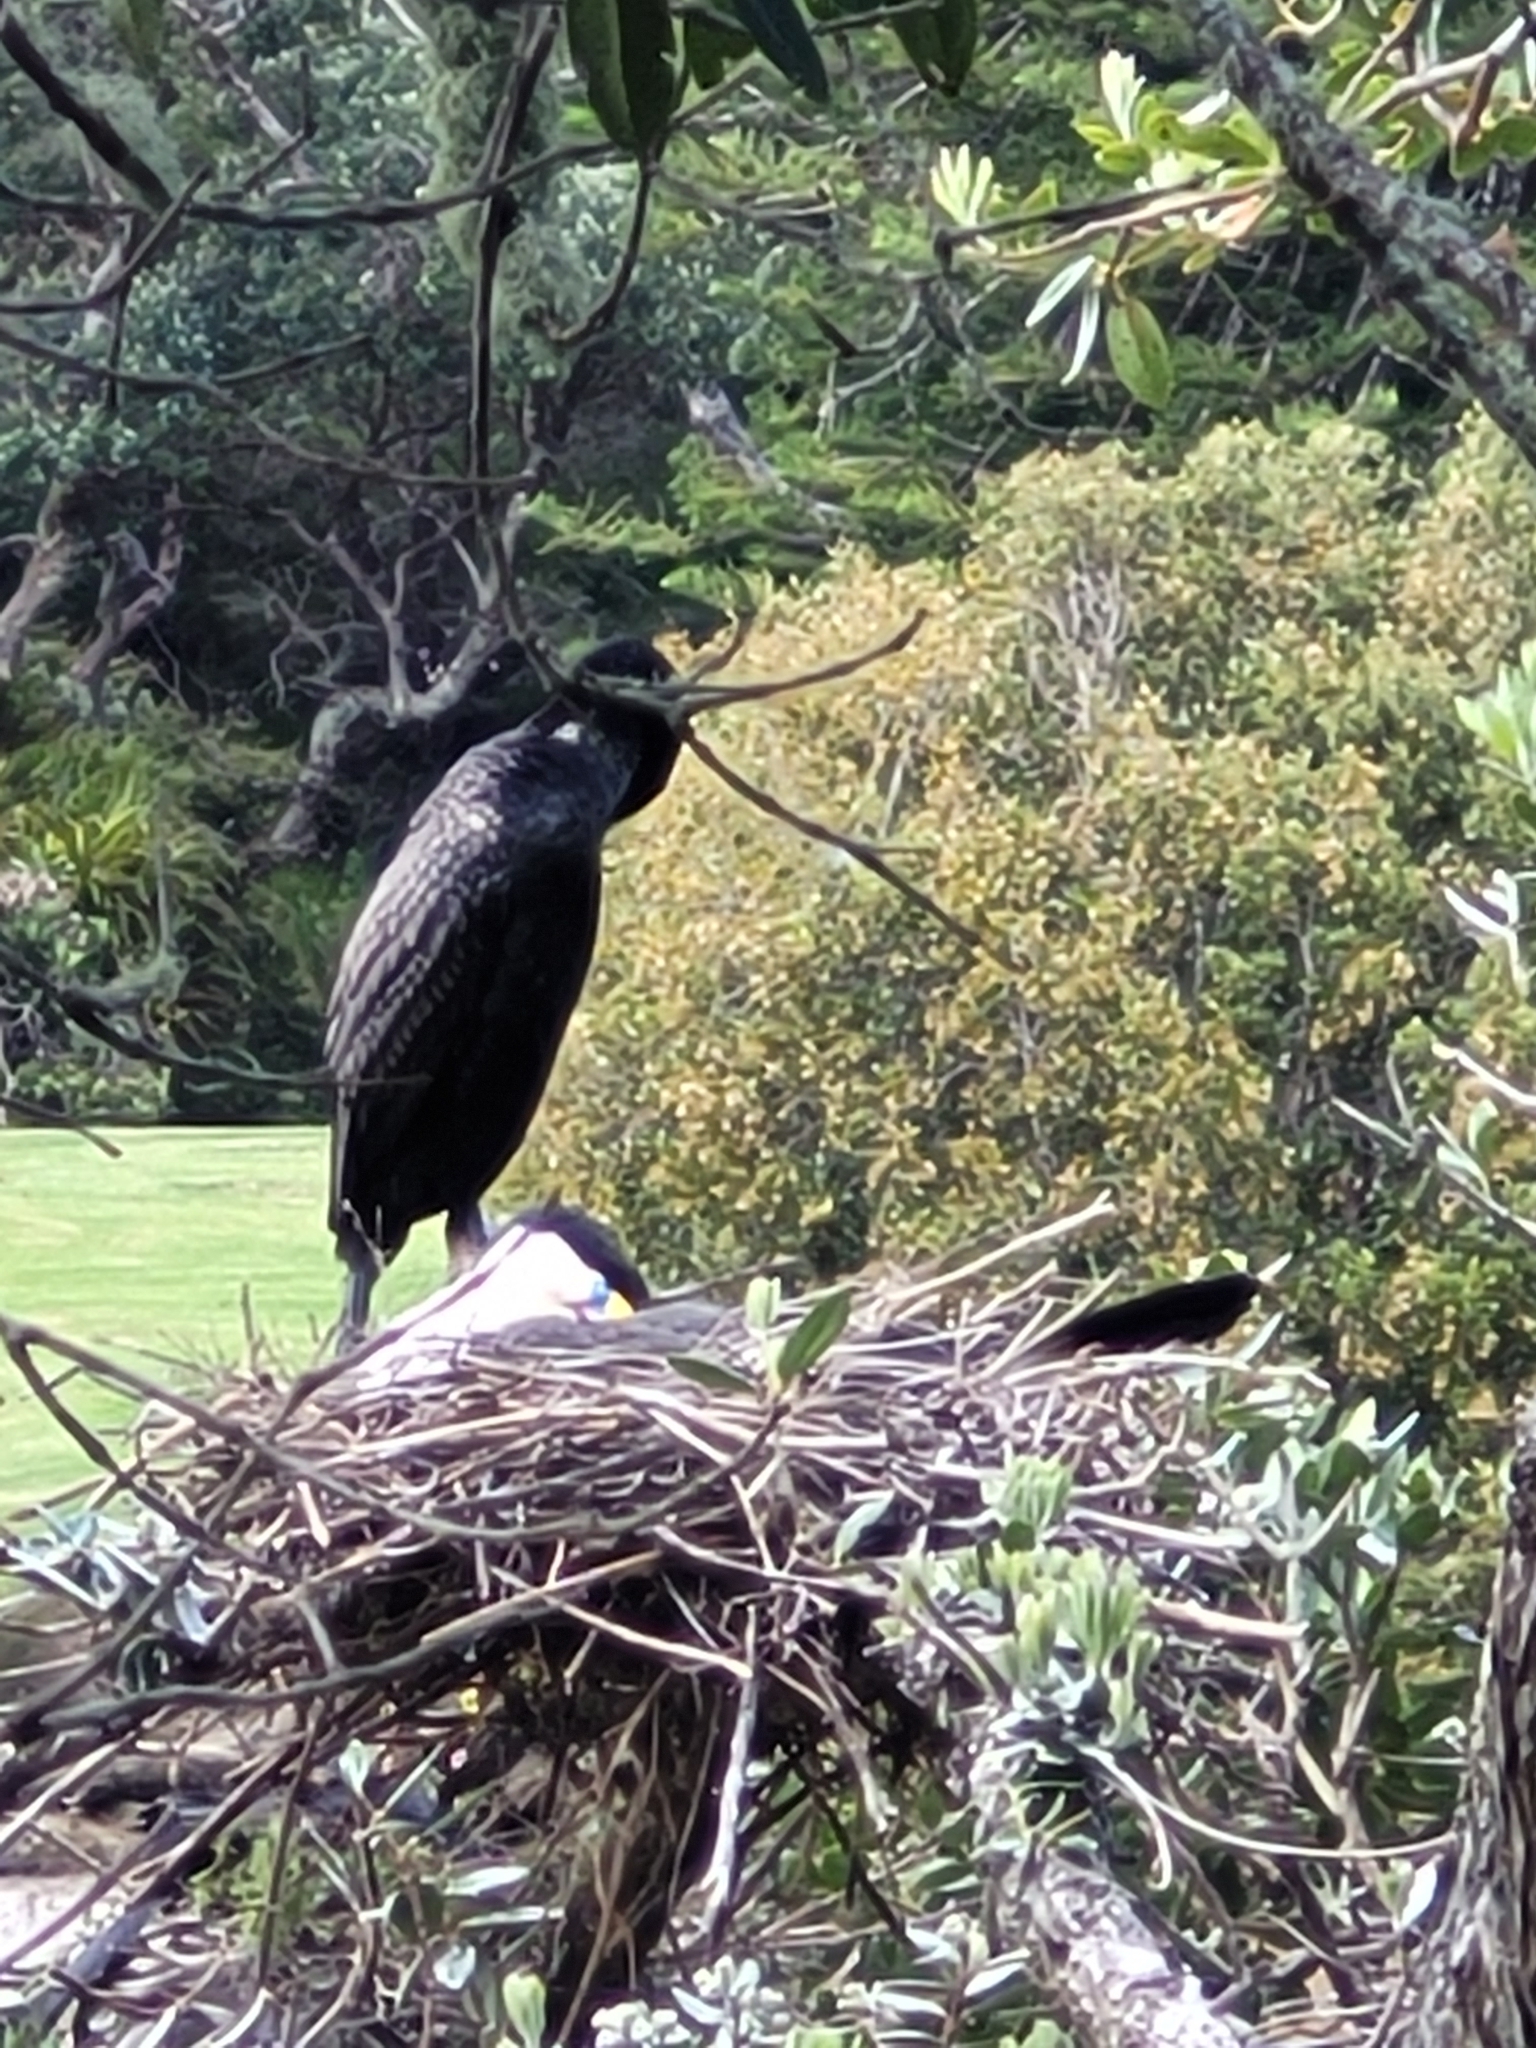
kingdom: Animalia
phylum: Chordata
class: Aves
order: Suliformes
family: Phalacrocoracidae
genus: Phalacrocorax
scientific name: Phalacrocorax varius
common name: Pied cormorant
